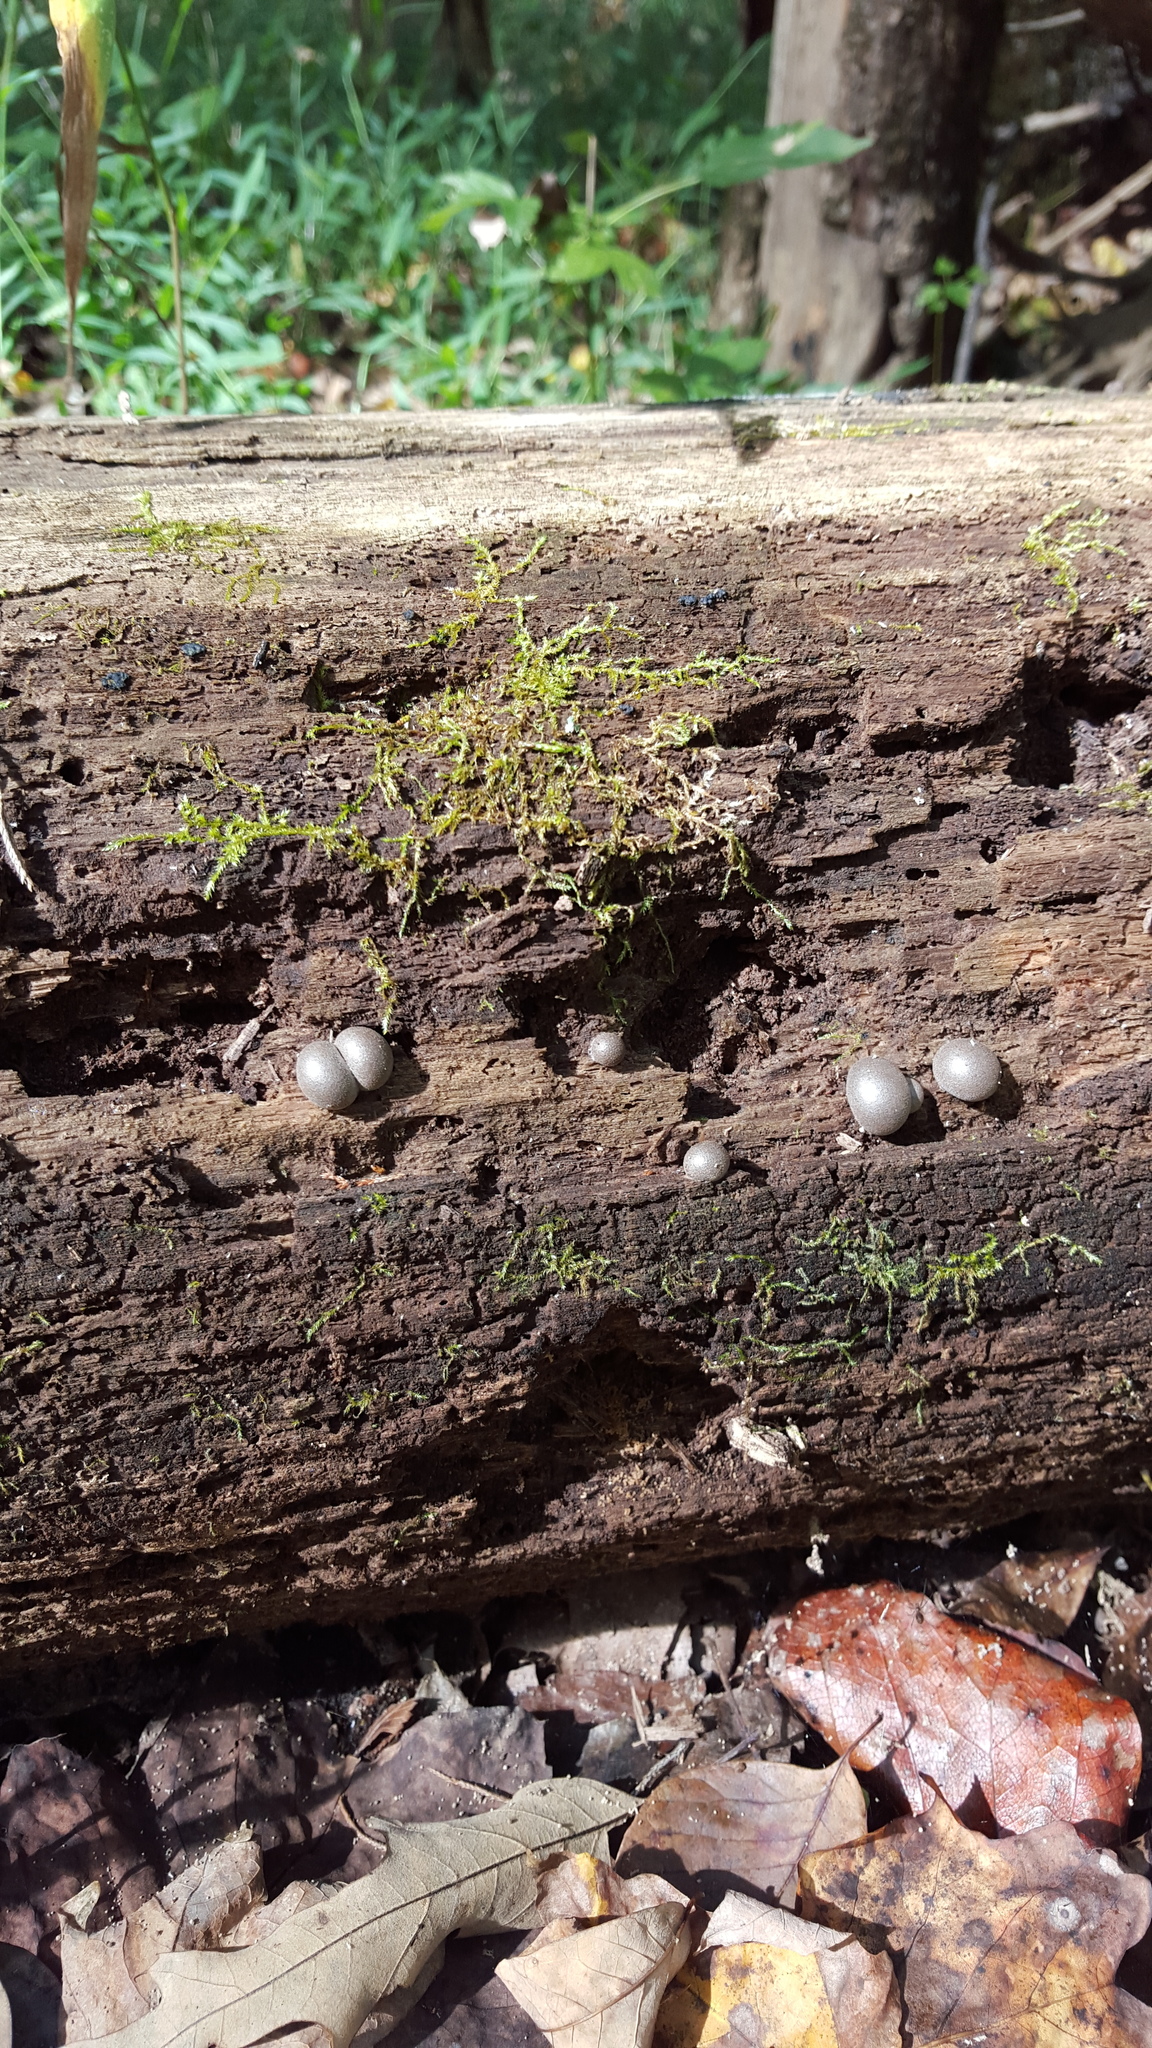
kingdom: Protozoa
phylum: Mycetozoa
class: Myxomycetes
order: Cribrariales
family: Tubiferaceae
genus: Lycogala
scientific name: Lycogala epidendrum
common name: Wolf's milk
